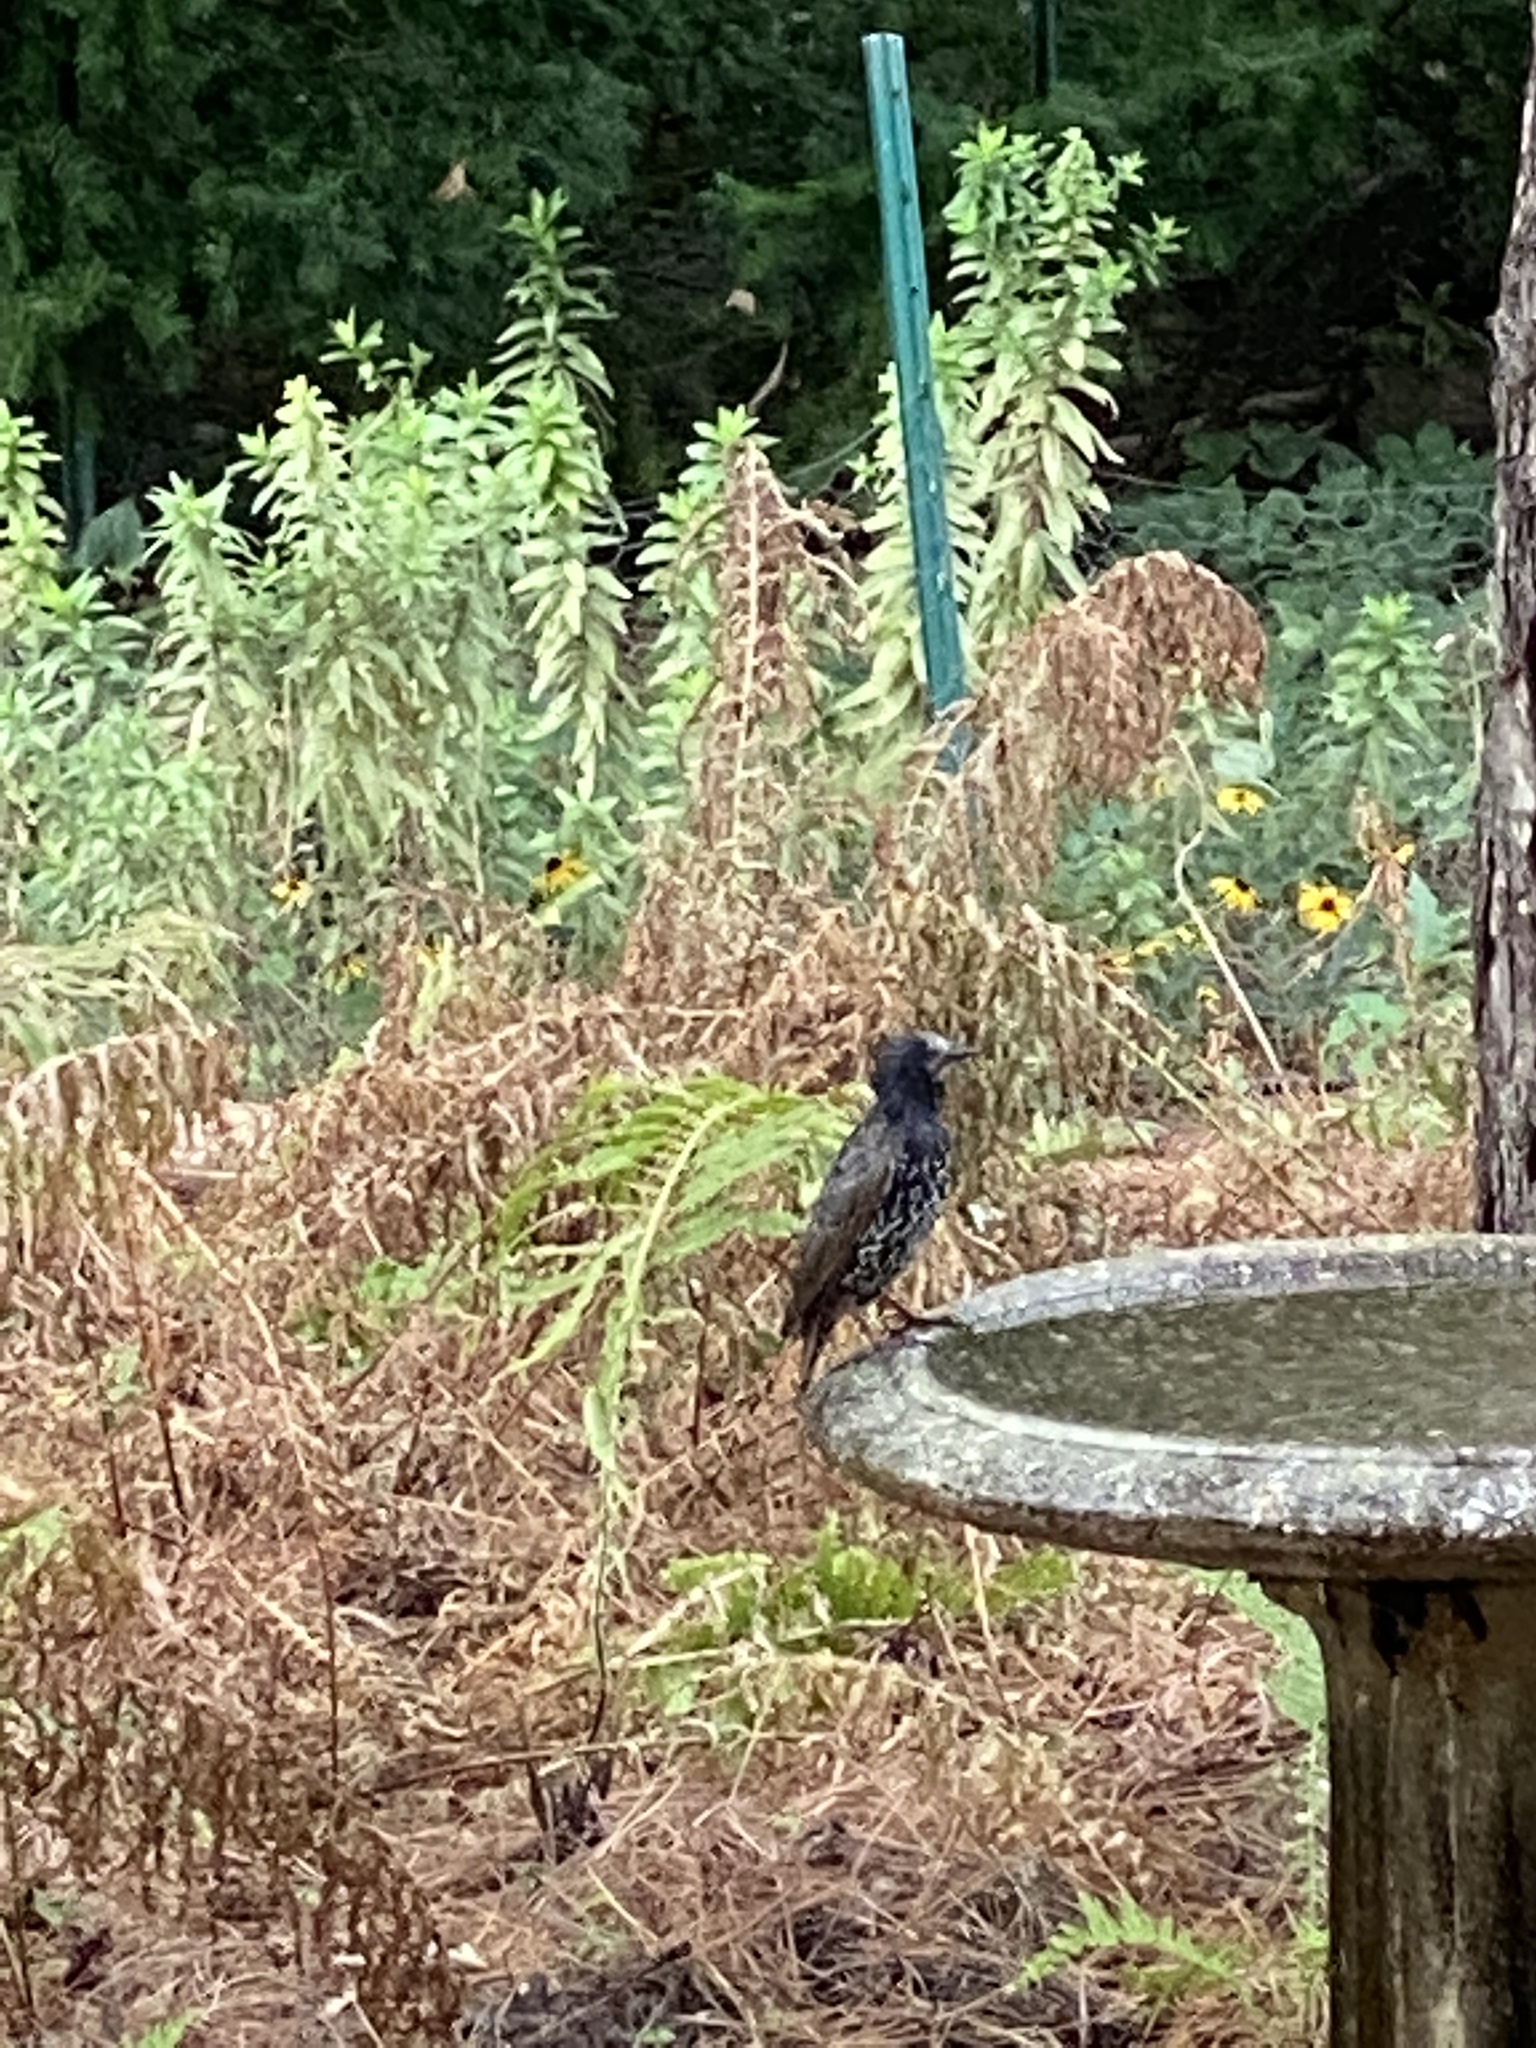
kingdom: Animalia
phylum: Chordata
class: Aves
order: Passeriformes
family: Sturnidae
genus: Sturnus
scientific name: Sturnus vulgaris
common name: Common starling
